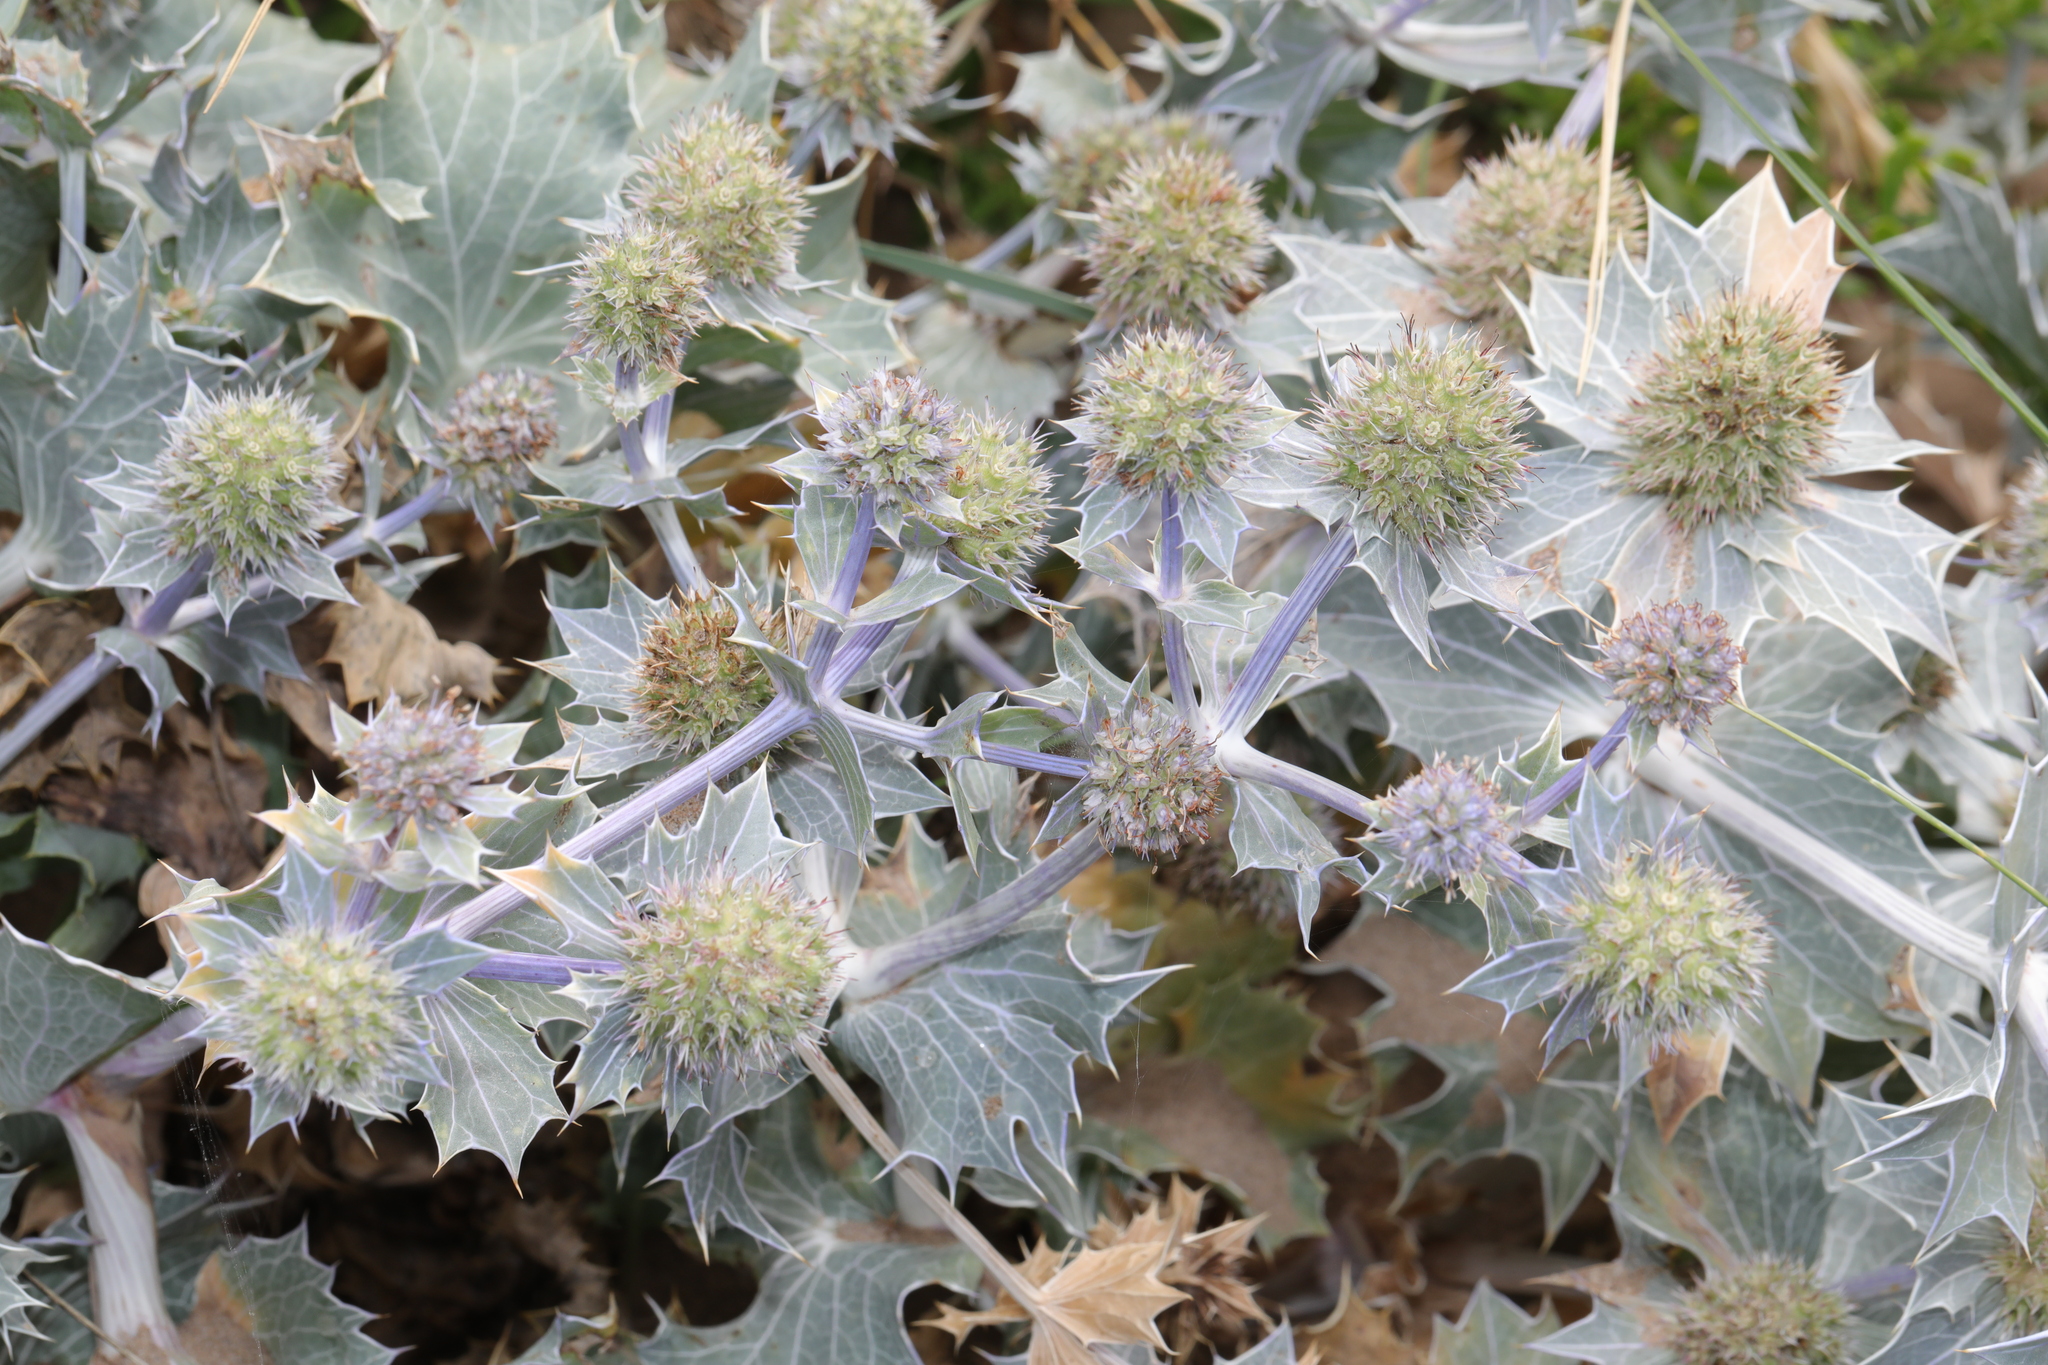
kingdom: Plantae
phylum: Tracheophyta
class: Magnoliopsida
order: Apiales
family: Apiaceae
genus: Eryngium
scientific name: Eryngium maritimum
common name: Sea-holly
